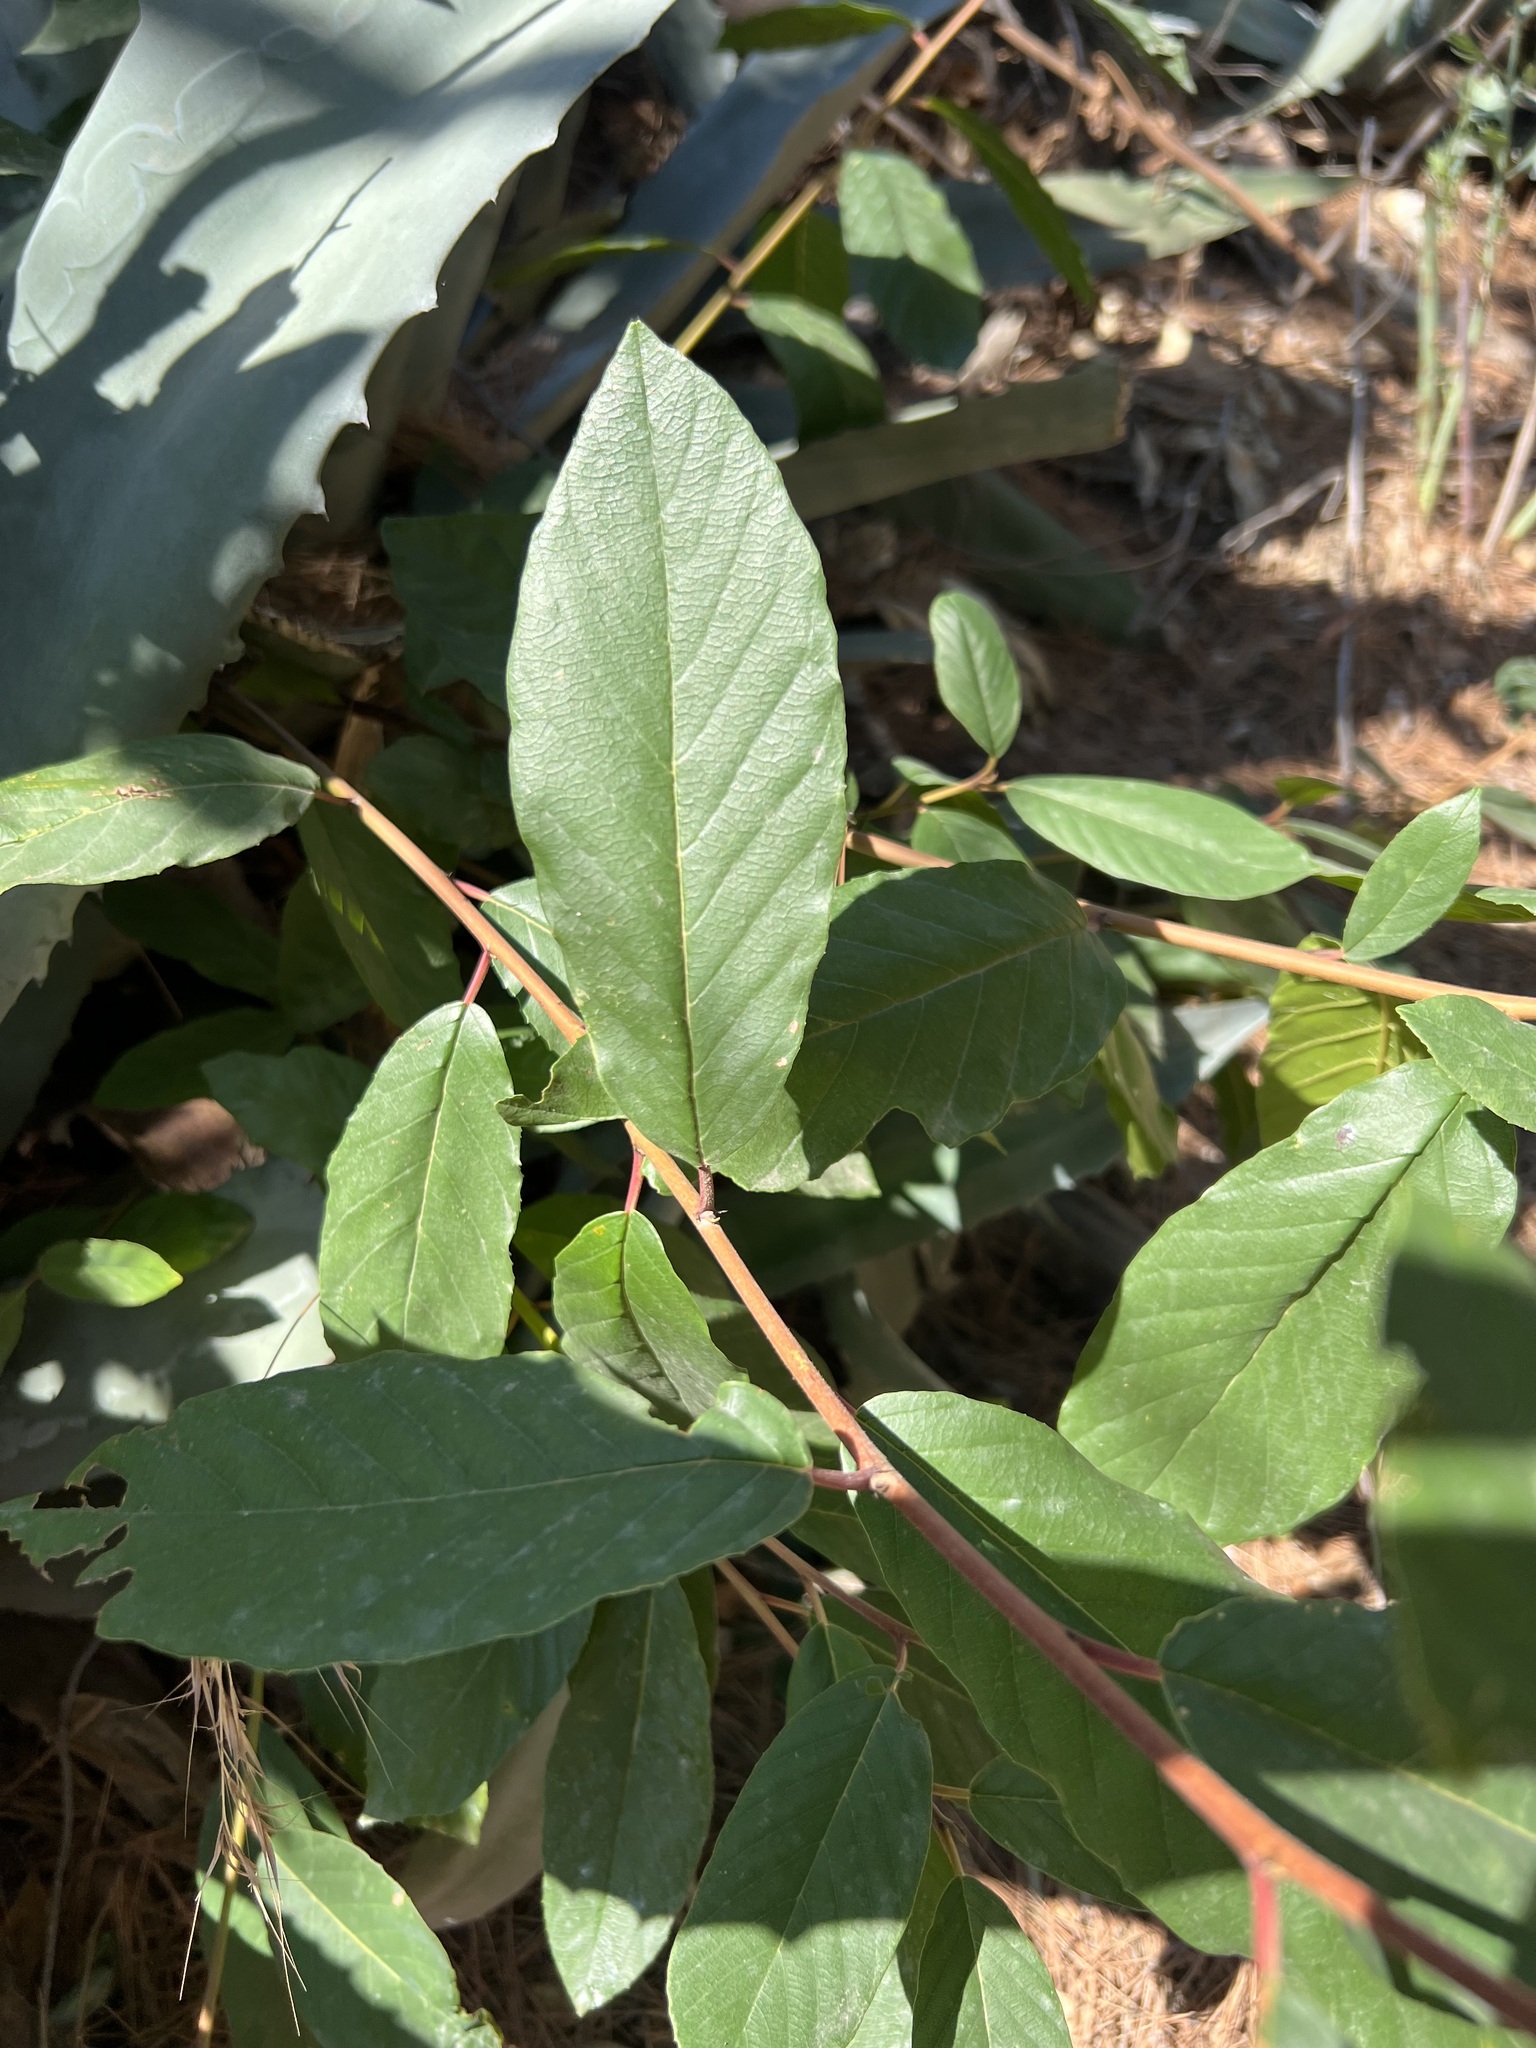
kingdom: Plantae
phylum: Tracheophyta
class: Magnoliopsida
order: Rosales
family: Rhamnaceae
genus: Frangula
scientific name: Frangula californica
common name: California buckthorn
